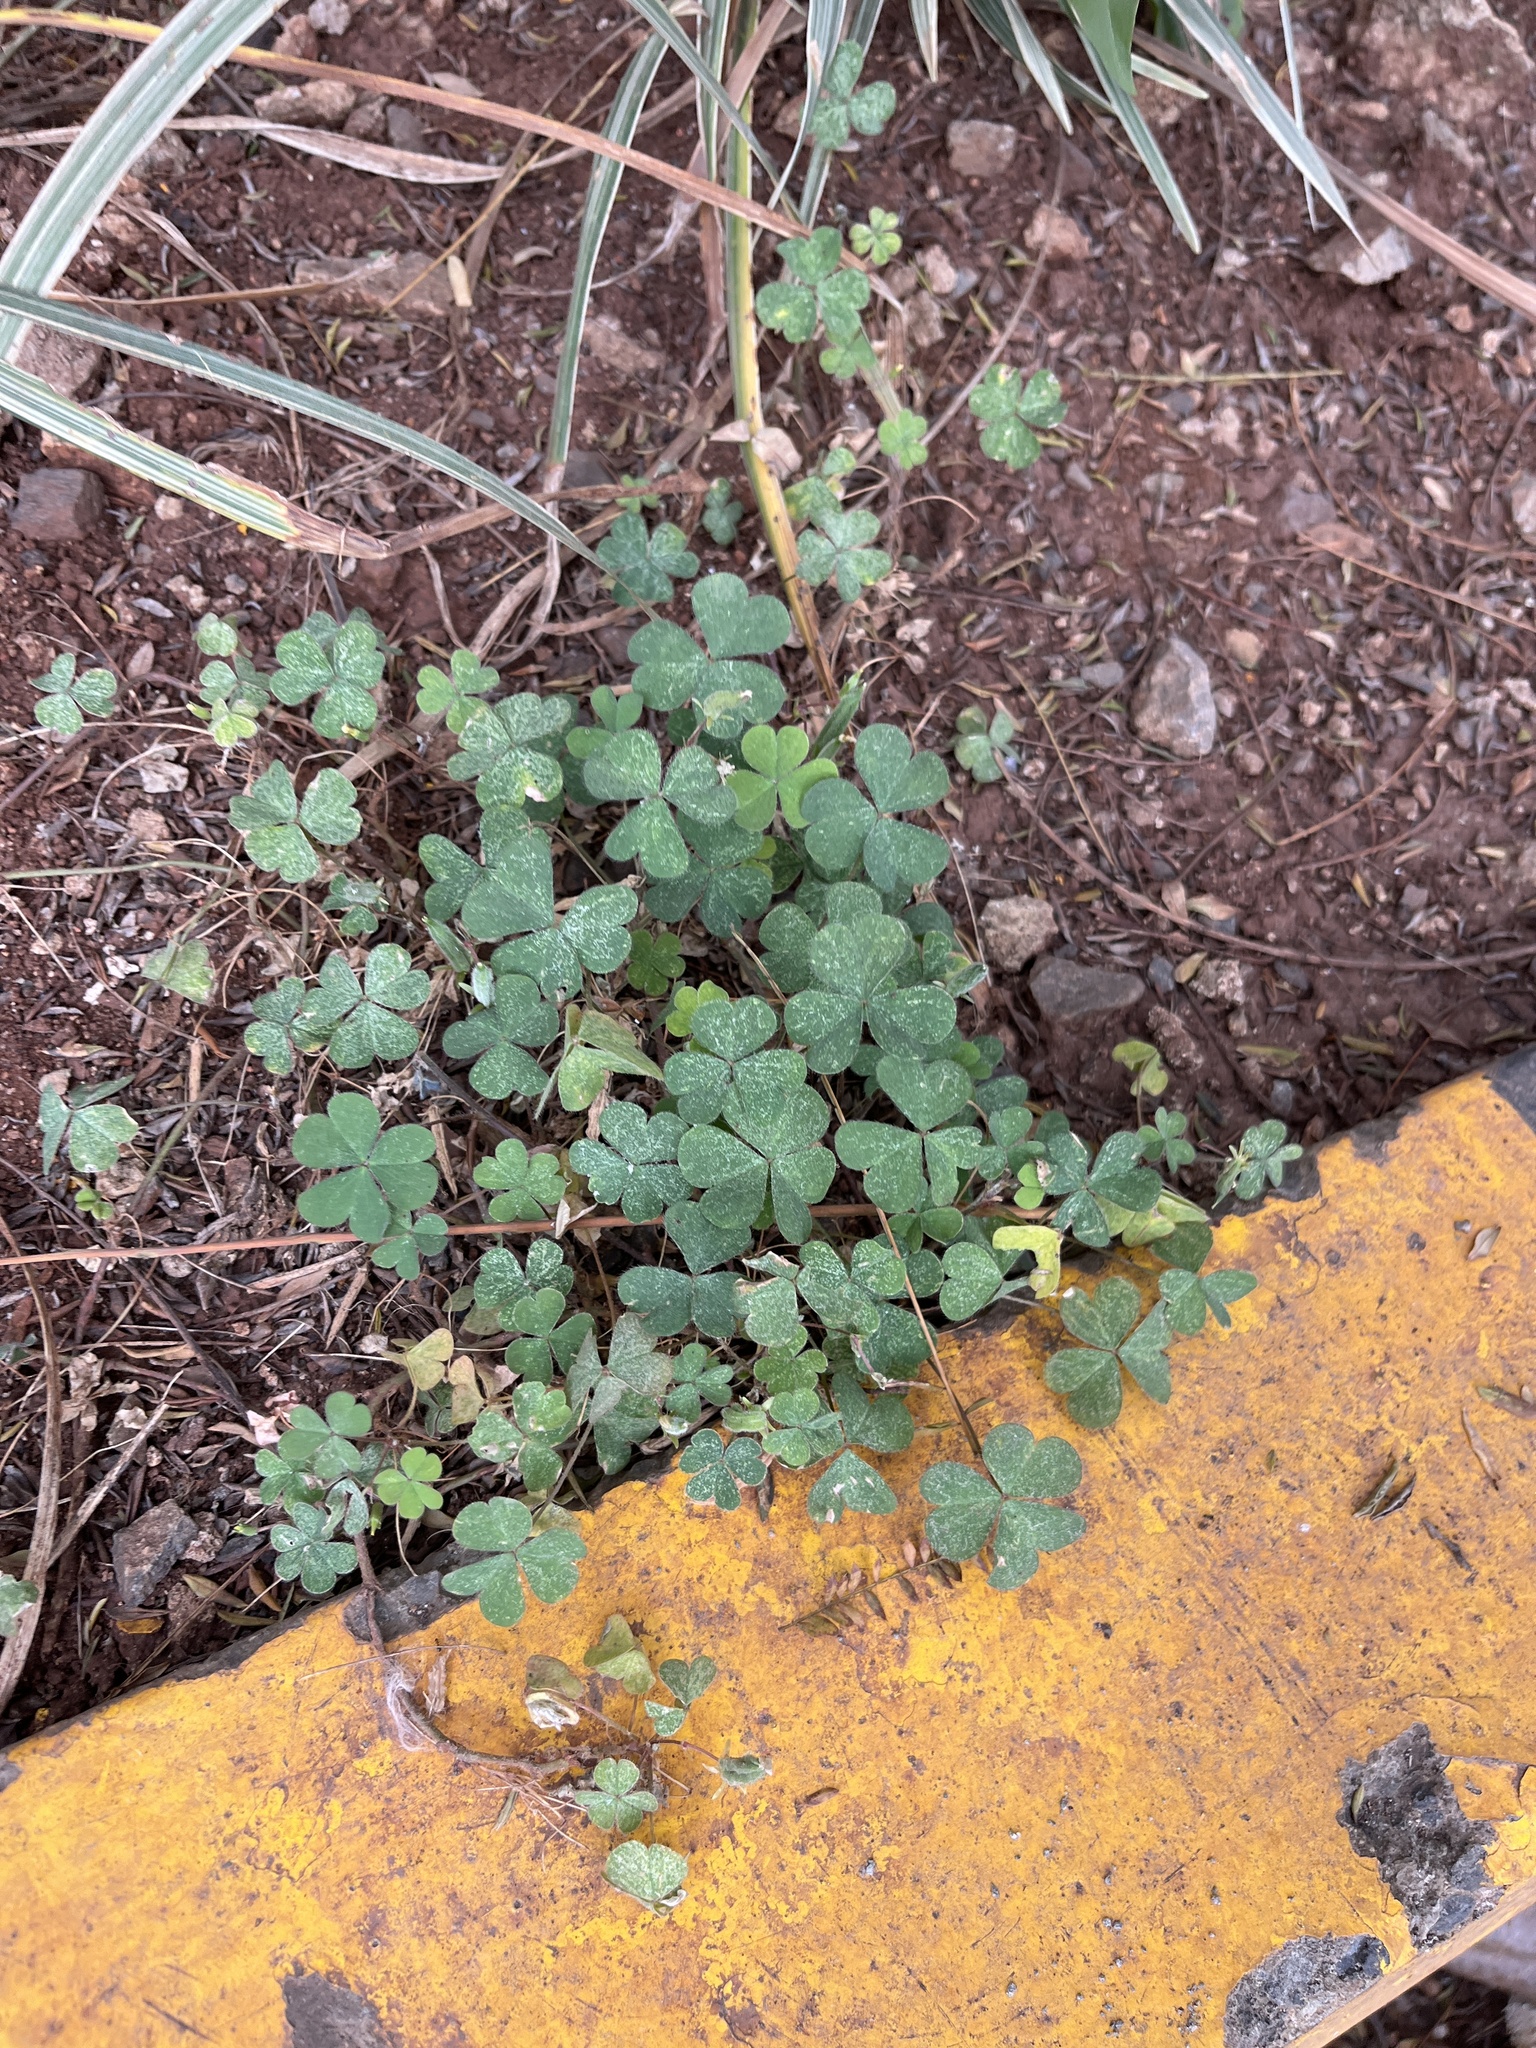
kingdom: Plantae
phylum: Tracheophyta
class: Magnoliopsida
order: Oxalidales
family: Oxalidaceae
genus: Oxalis
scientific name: Oxalis corniculata
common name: Procumbent yellow-sorrel
